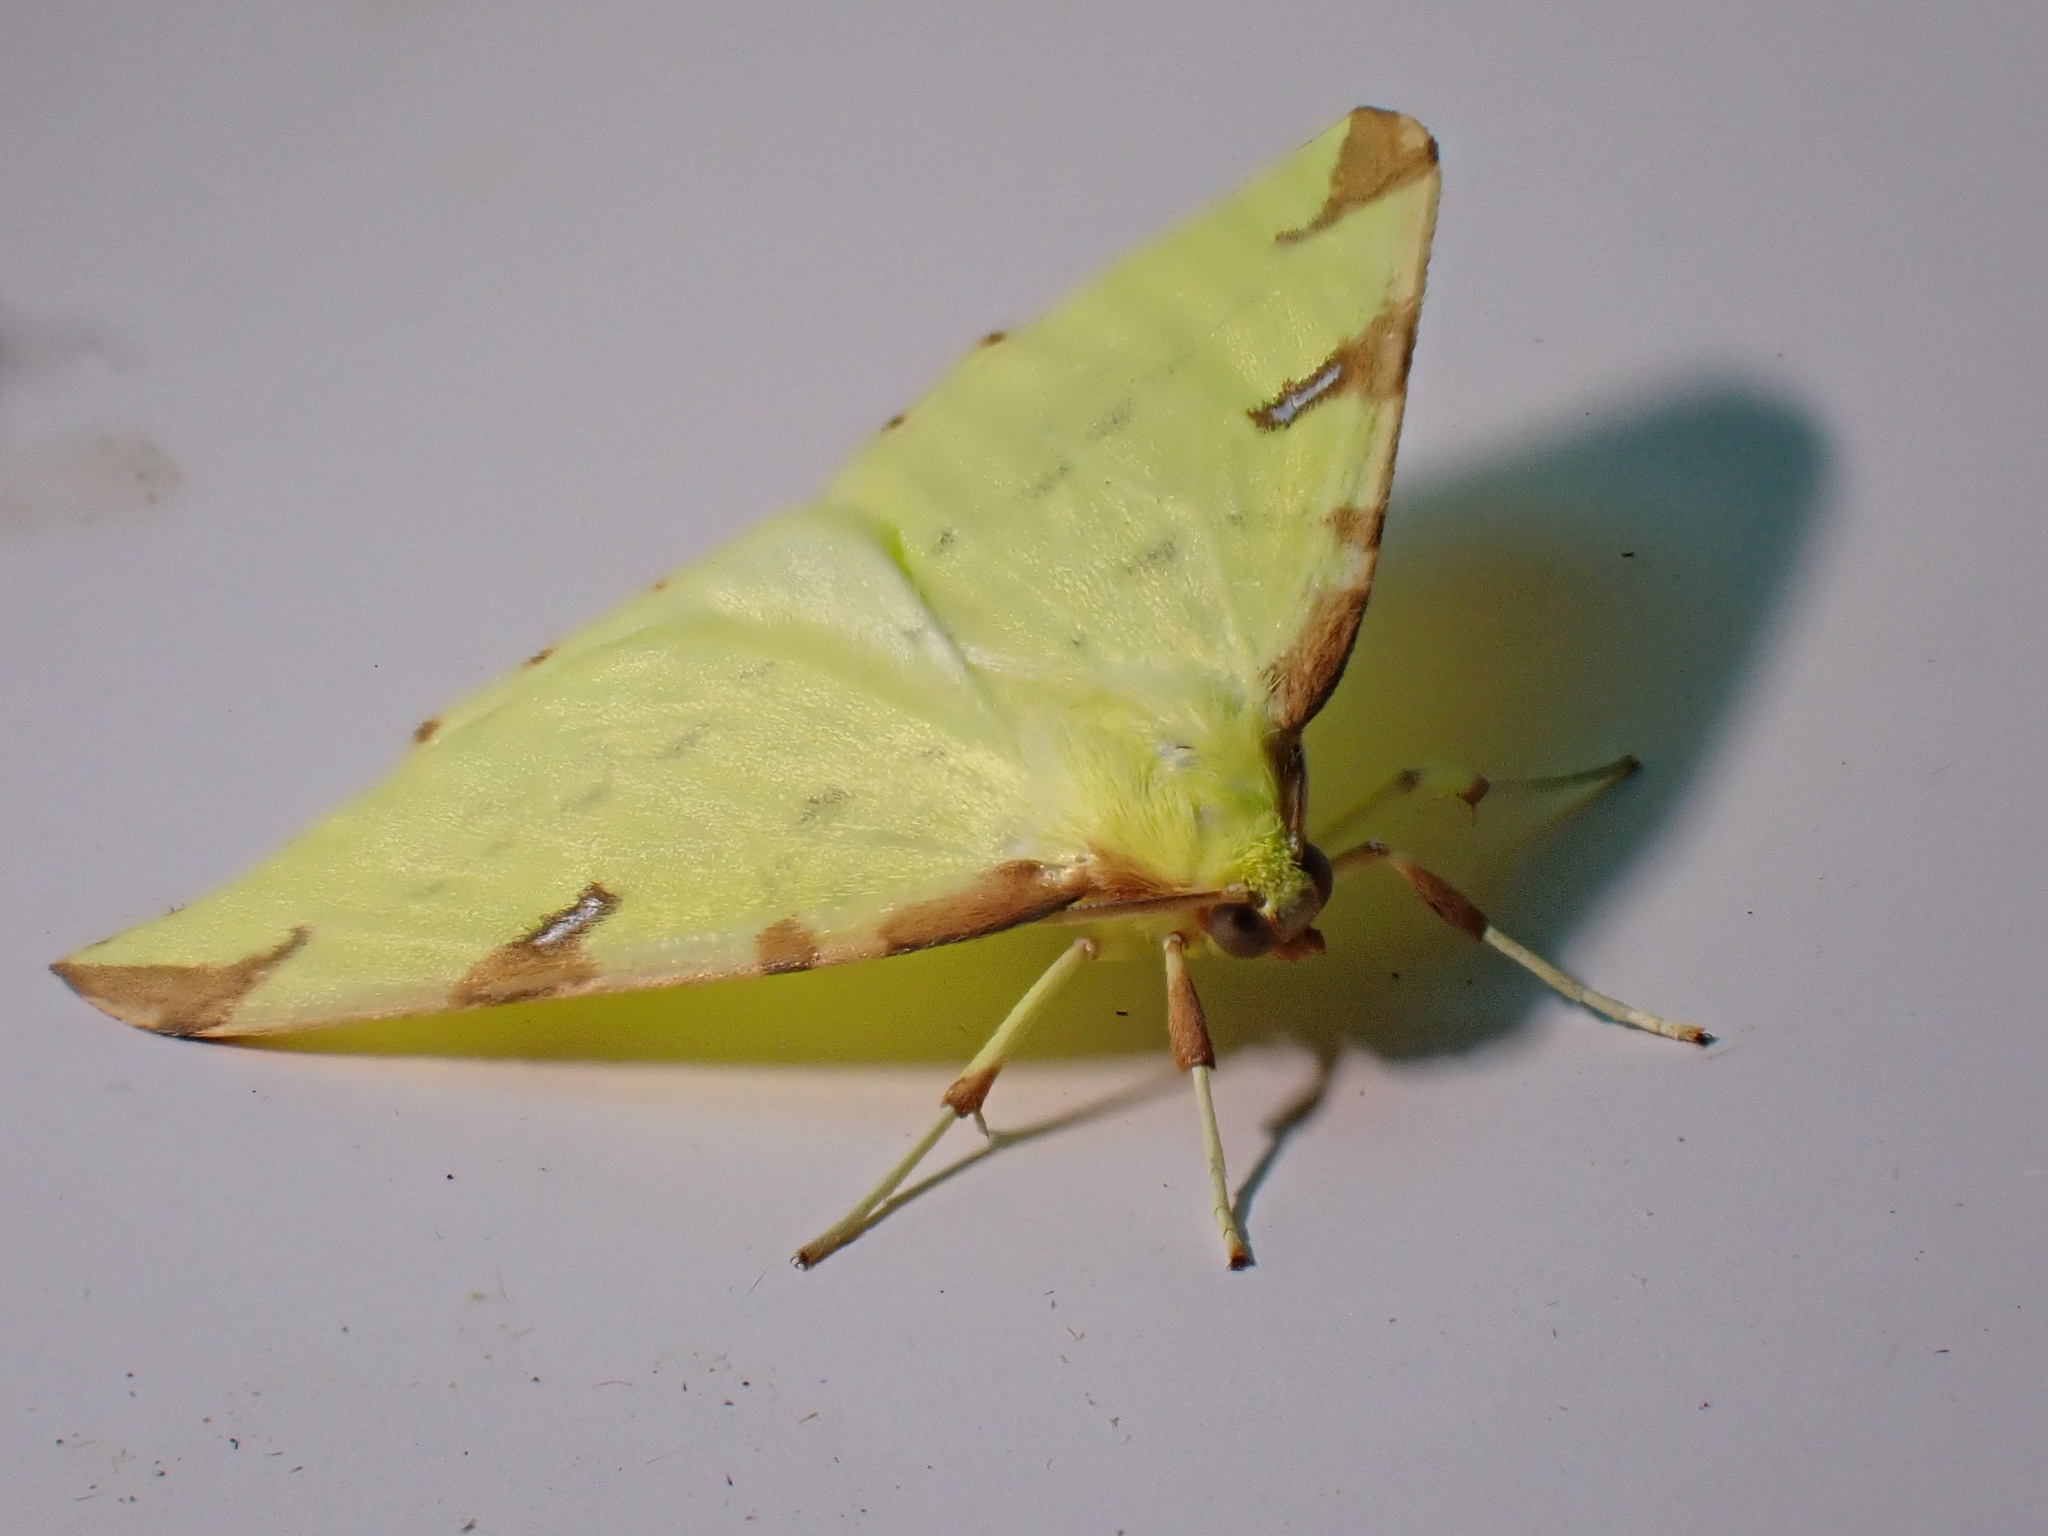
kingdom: Animalia
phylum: Arthropoda
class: Insecta
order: Lepidoptera
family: Geometridae
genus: Opisthograptis
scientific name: Opisthograptis luteolata
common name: Brimstone moth
